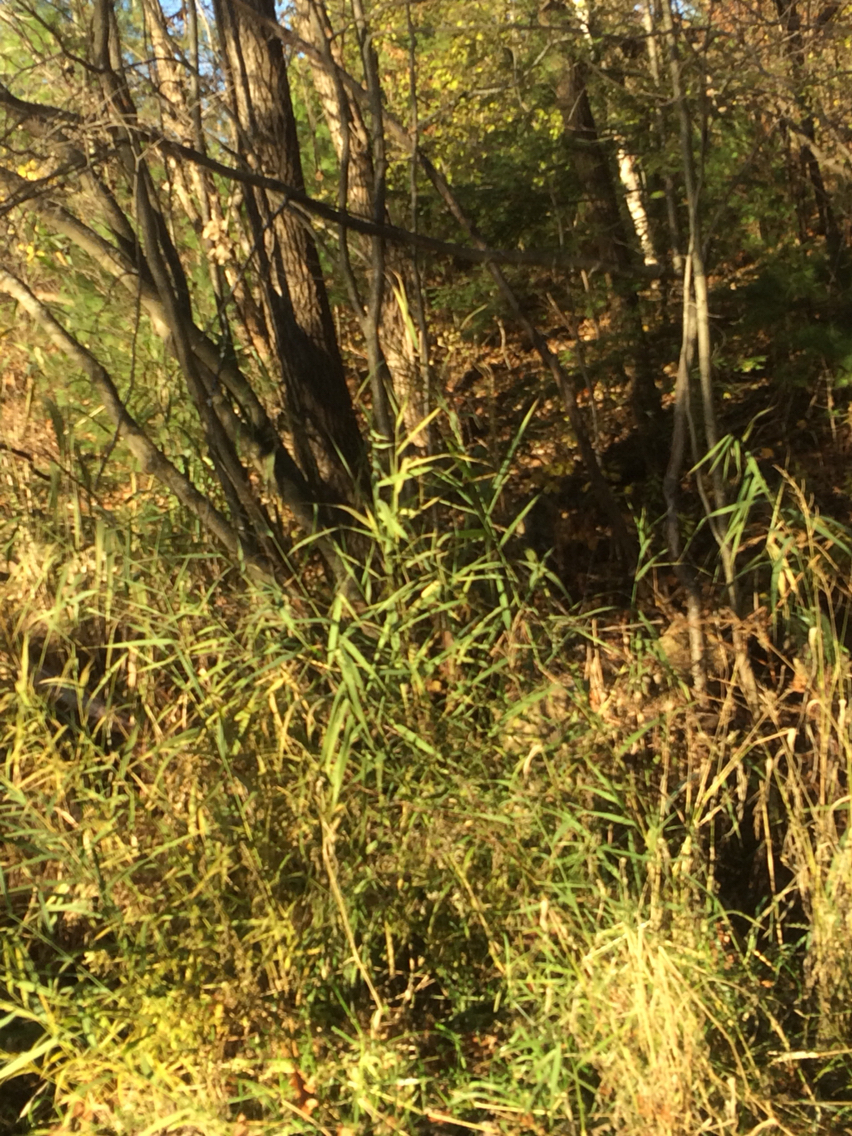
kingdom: Plantae
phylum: Tracheophyta
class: Liliopsida
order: Poales
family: Poaceae
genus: Phragmites
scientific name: Phragmites australis
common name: Common reed
